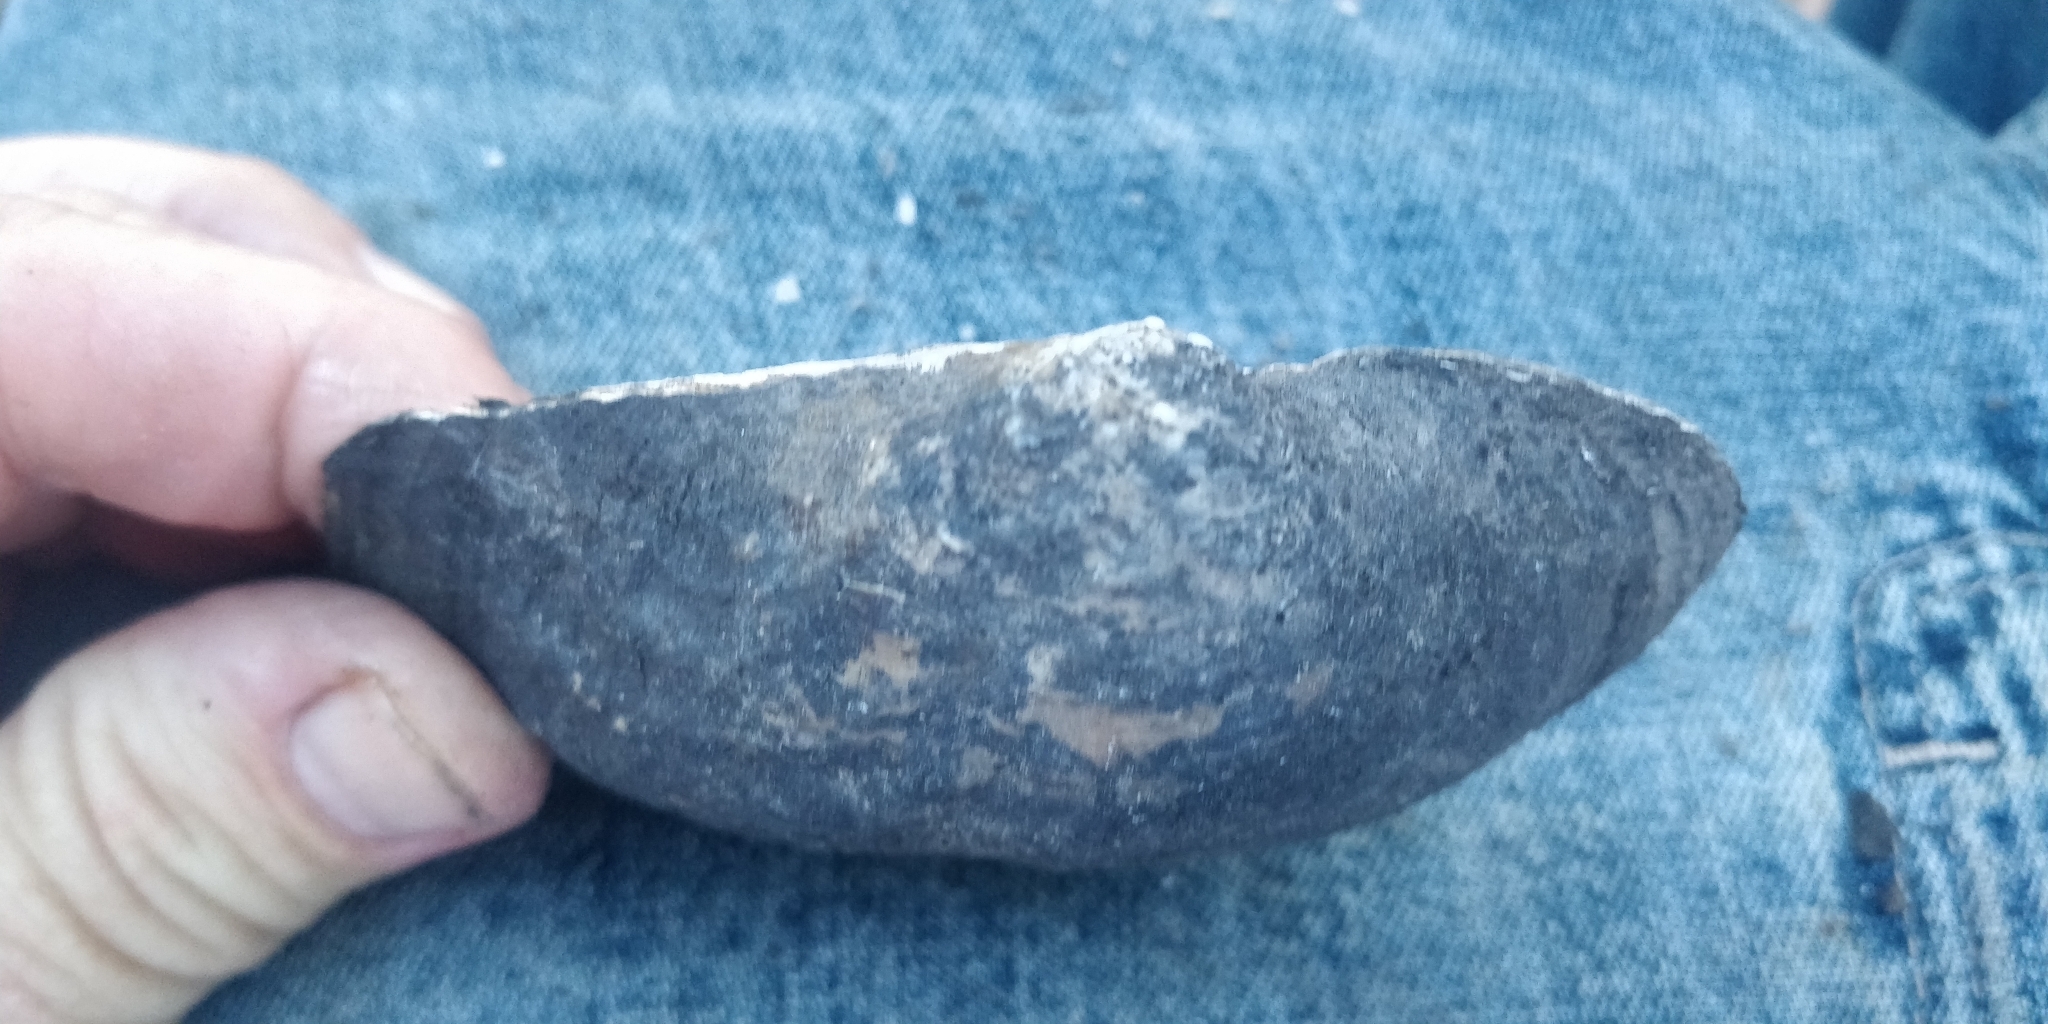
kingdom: Animalia
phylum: Mollusca
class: Bivalvia
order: Unionida
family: Unionidae
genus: Arcidens
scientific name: Arcidens confragosus
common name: Rock pocketbook
